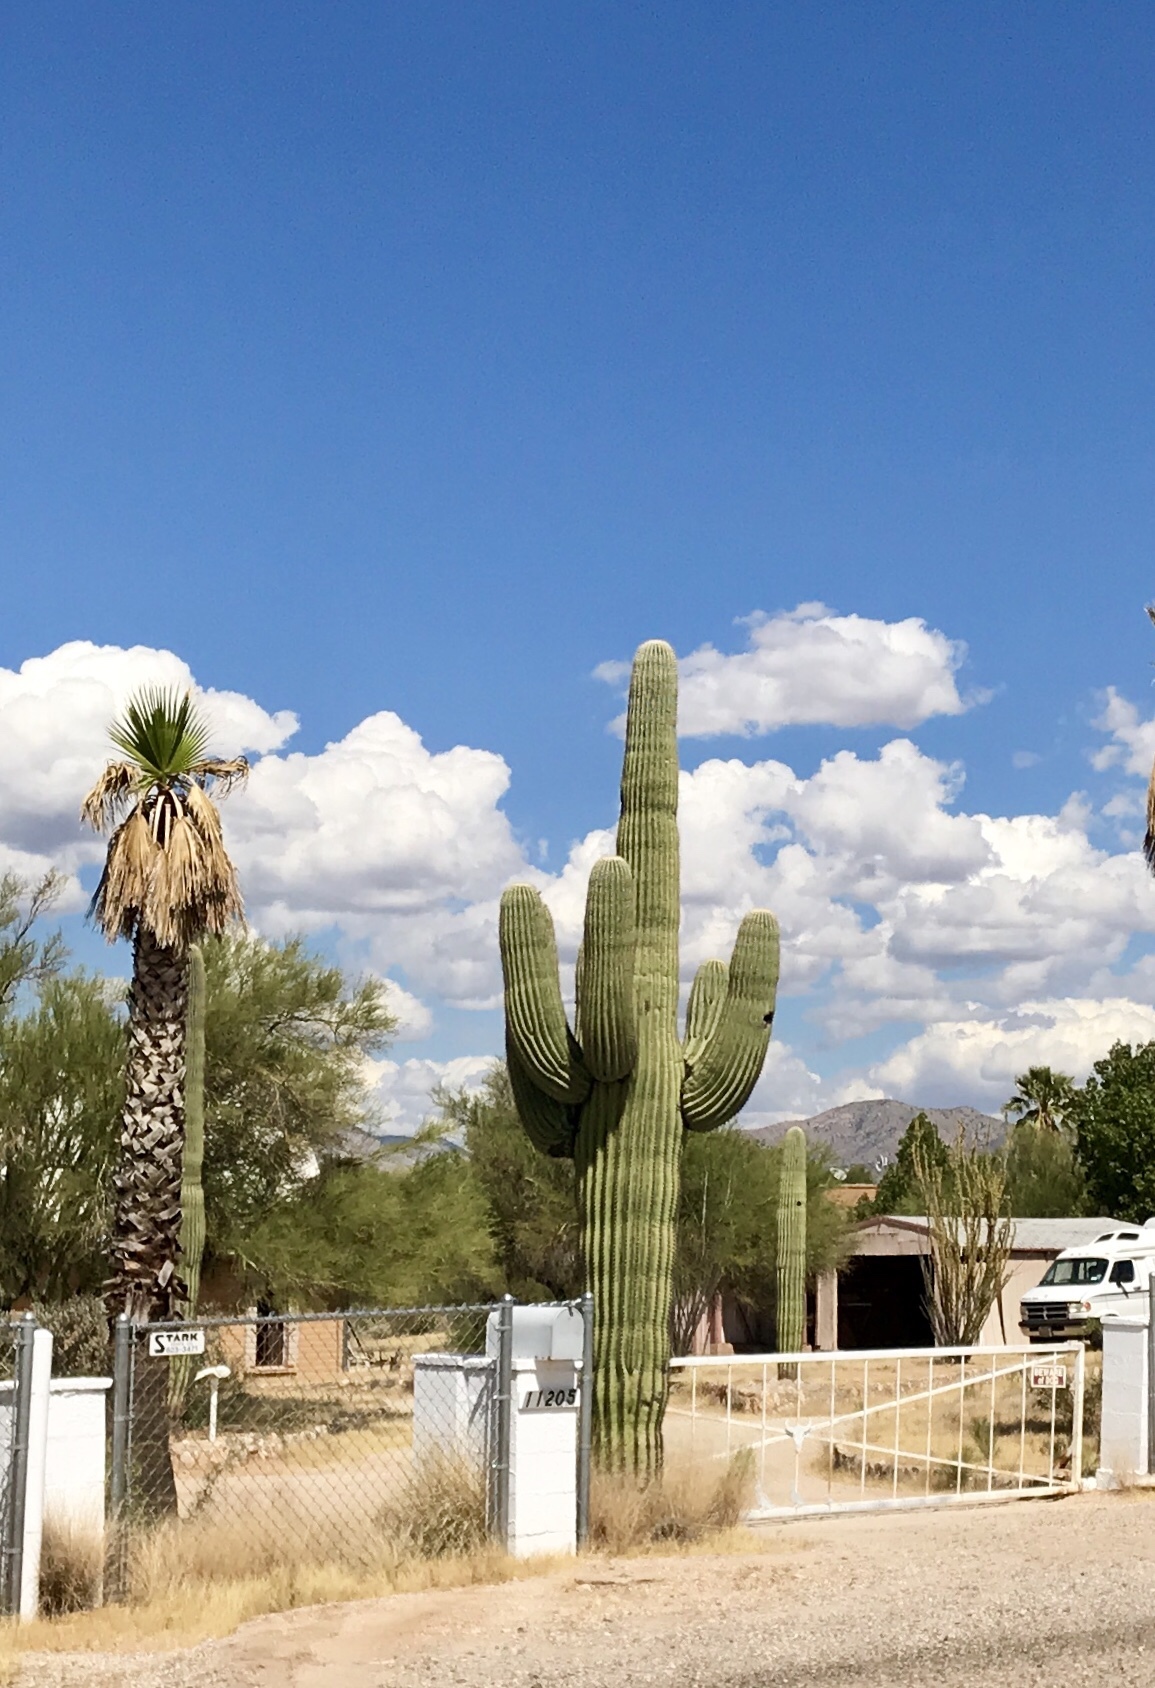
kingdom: Plantae
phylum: Tracheophyta
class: Magnoliopsida
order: Caryophyllales
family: Cactaceae
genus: Carnegiea
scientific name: Carnegiea gigantea
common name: Saguaro
